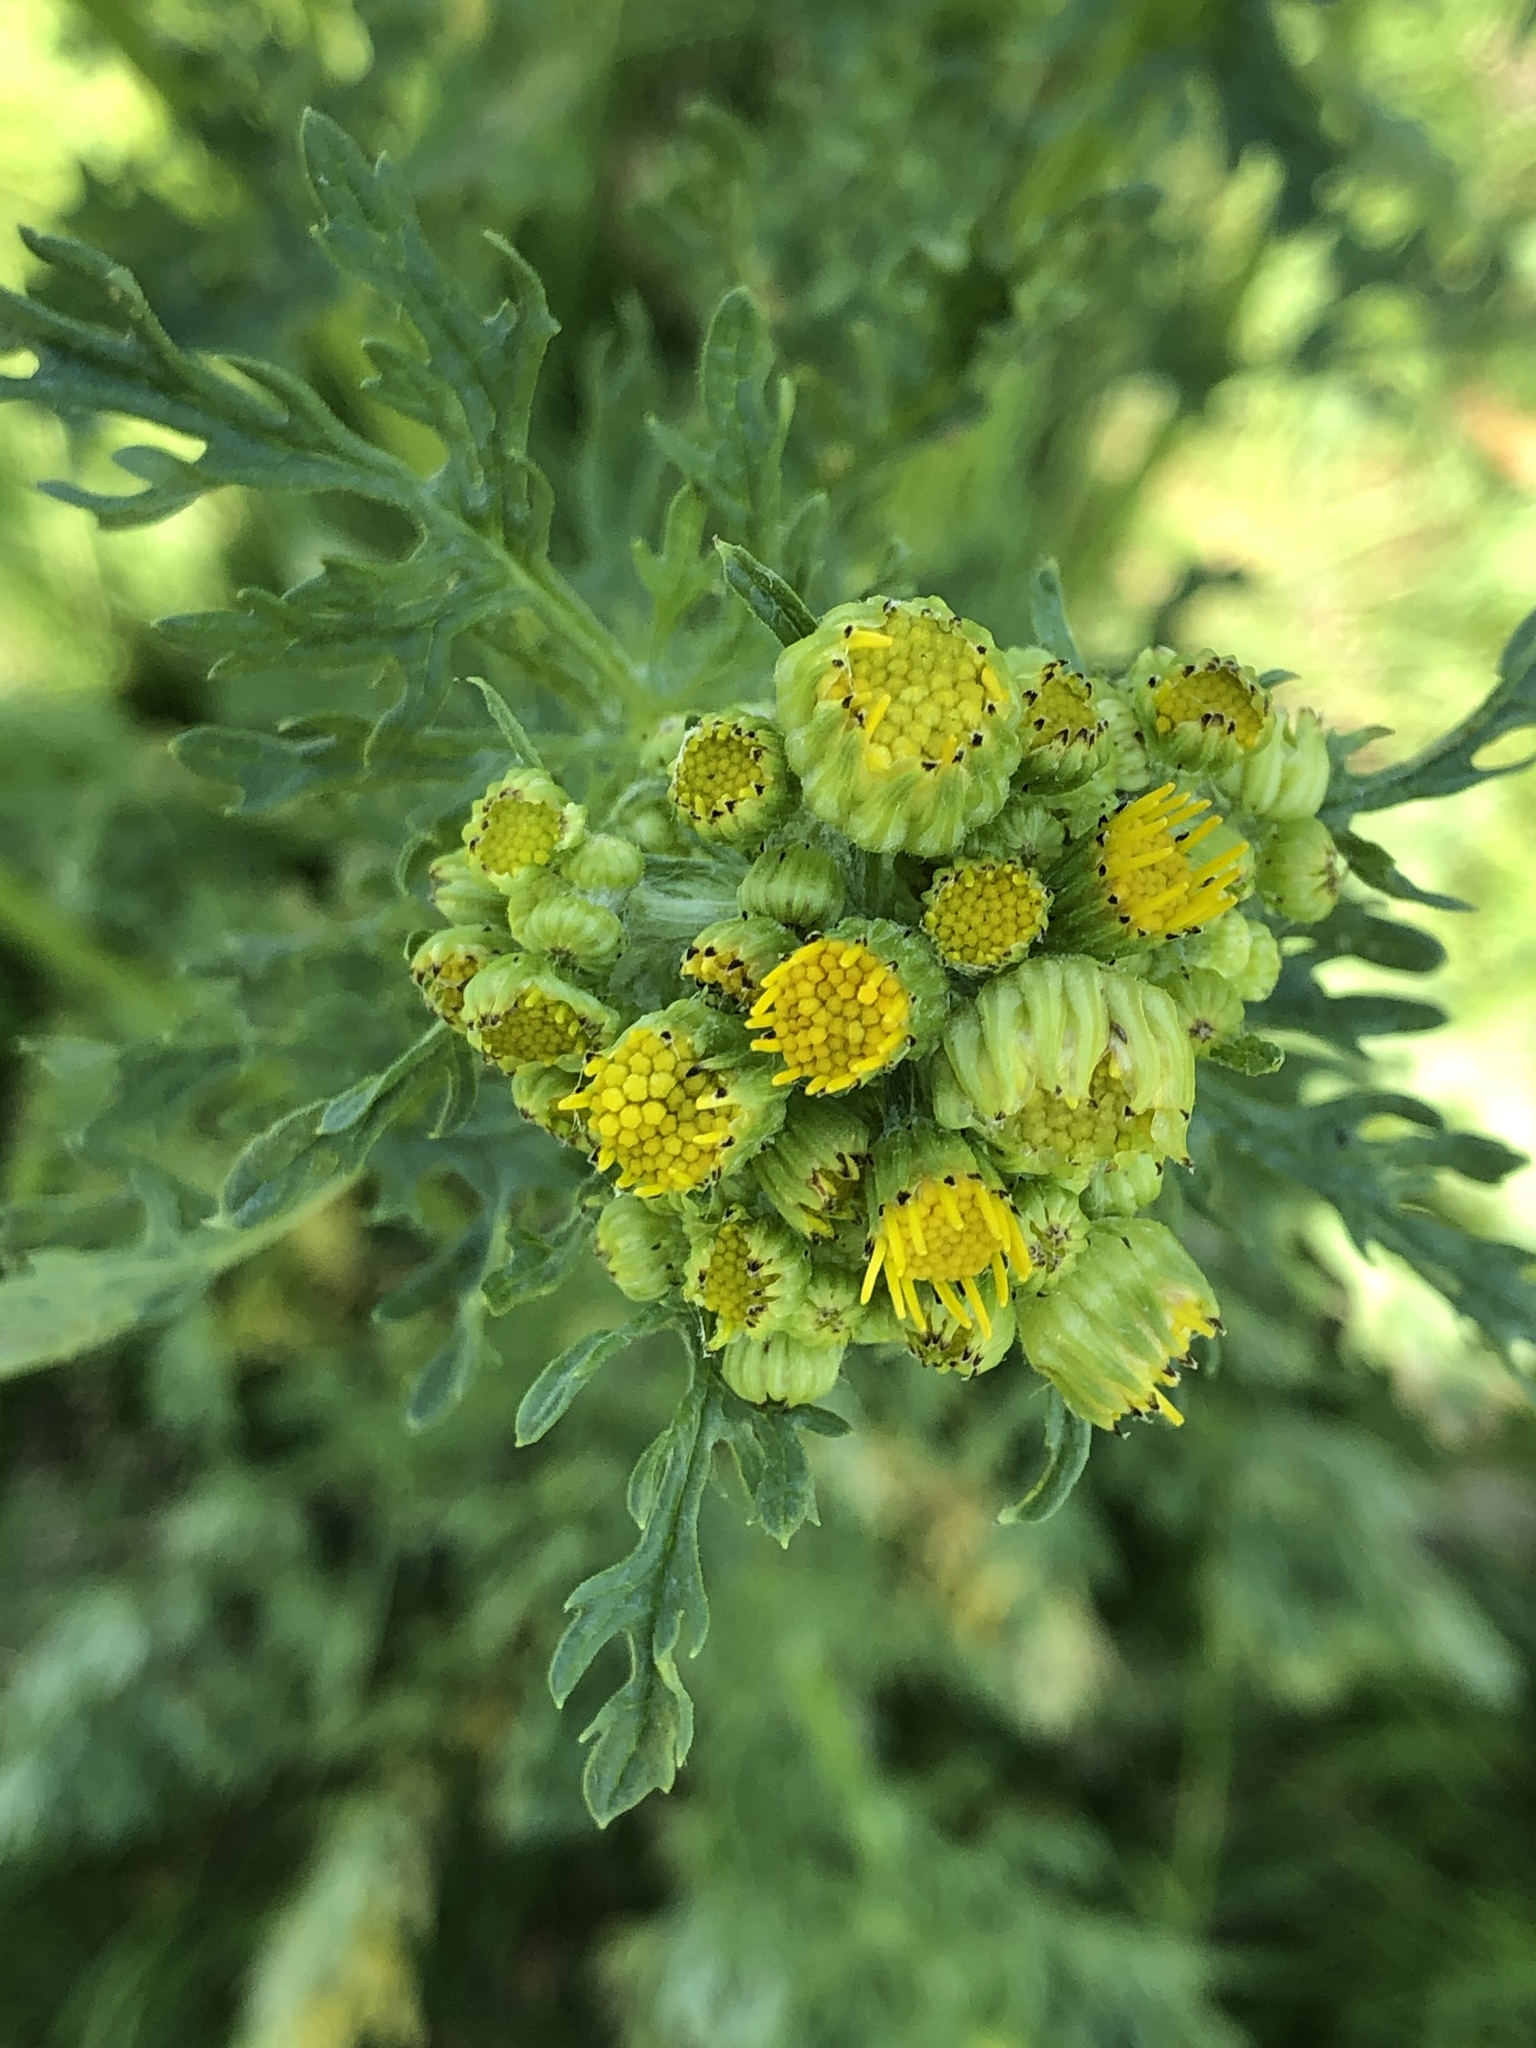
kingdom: Plantae
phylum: Tracheophyta
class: Magnoliopsida
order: Asterales
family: Asteraceae
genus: Jacobaea
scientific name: Jacobaea vulgaris
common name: Stinking willie
